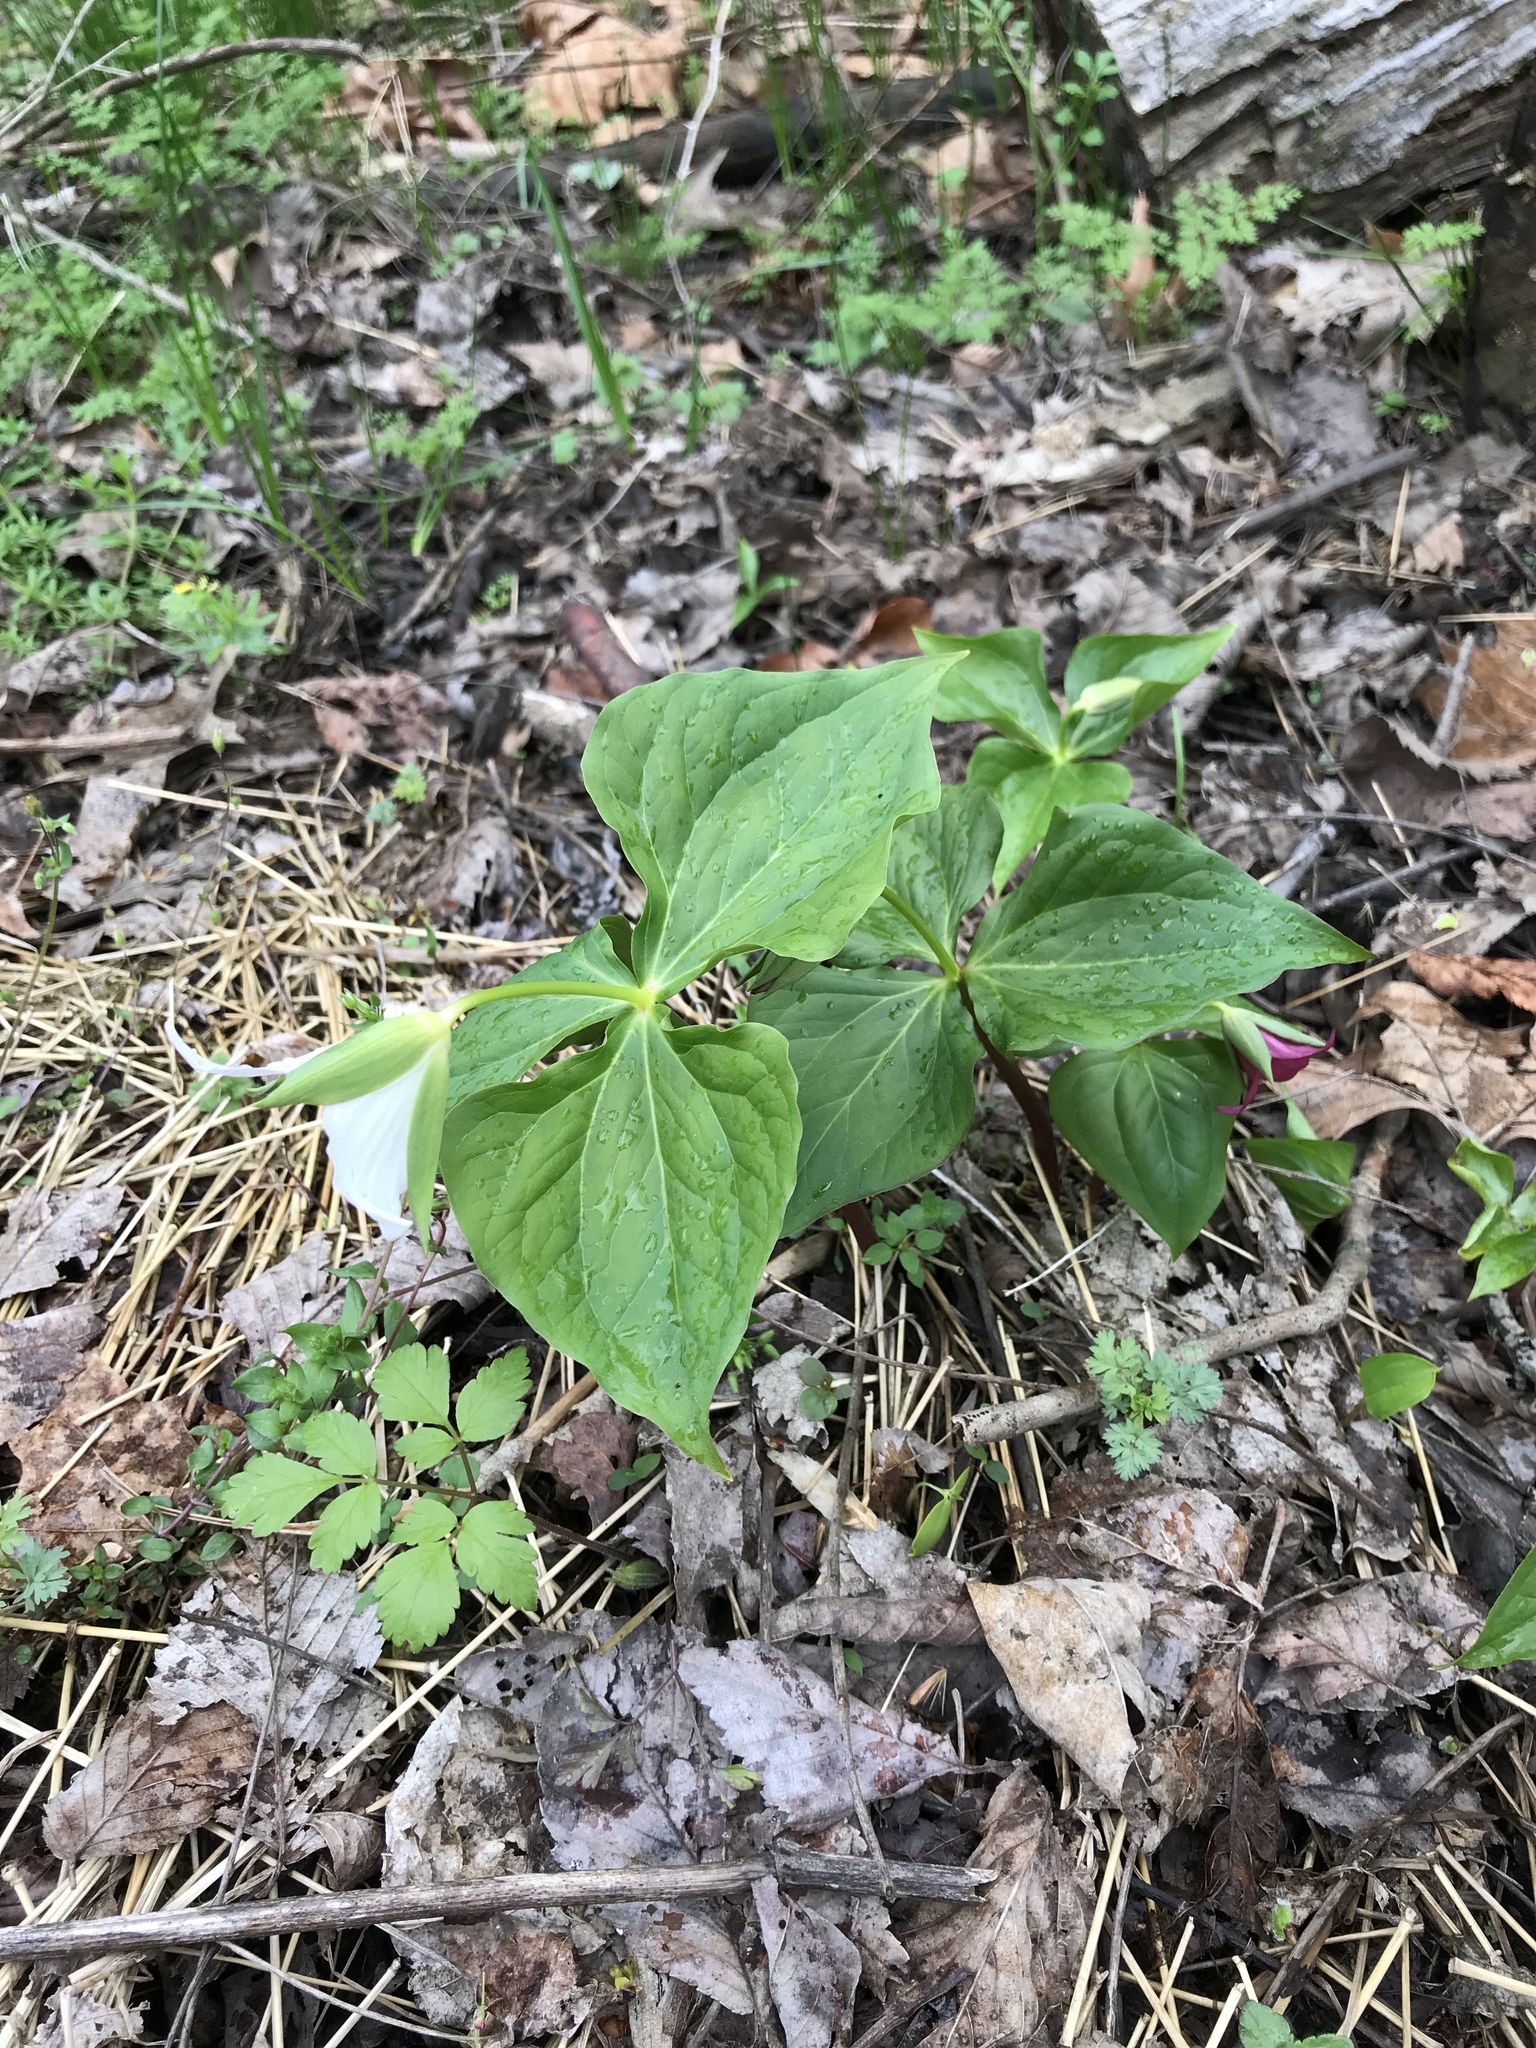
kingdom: Plantae
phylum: Tracheophyta
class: Liliopsida
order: Liliales
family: Melanthiaceae
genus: Trillium
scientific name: Trillium erectum
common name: Purple trillium
